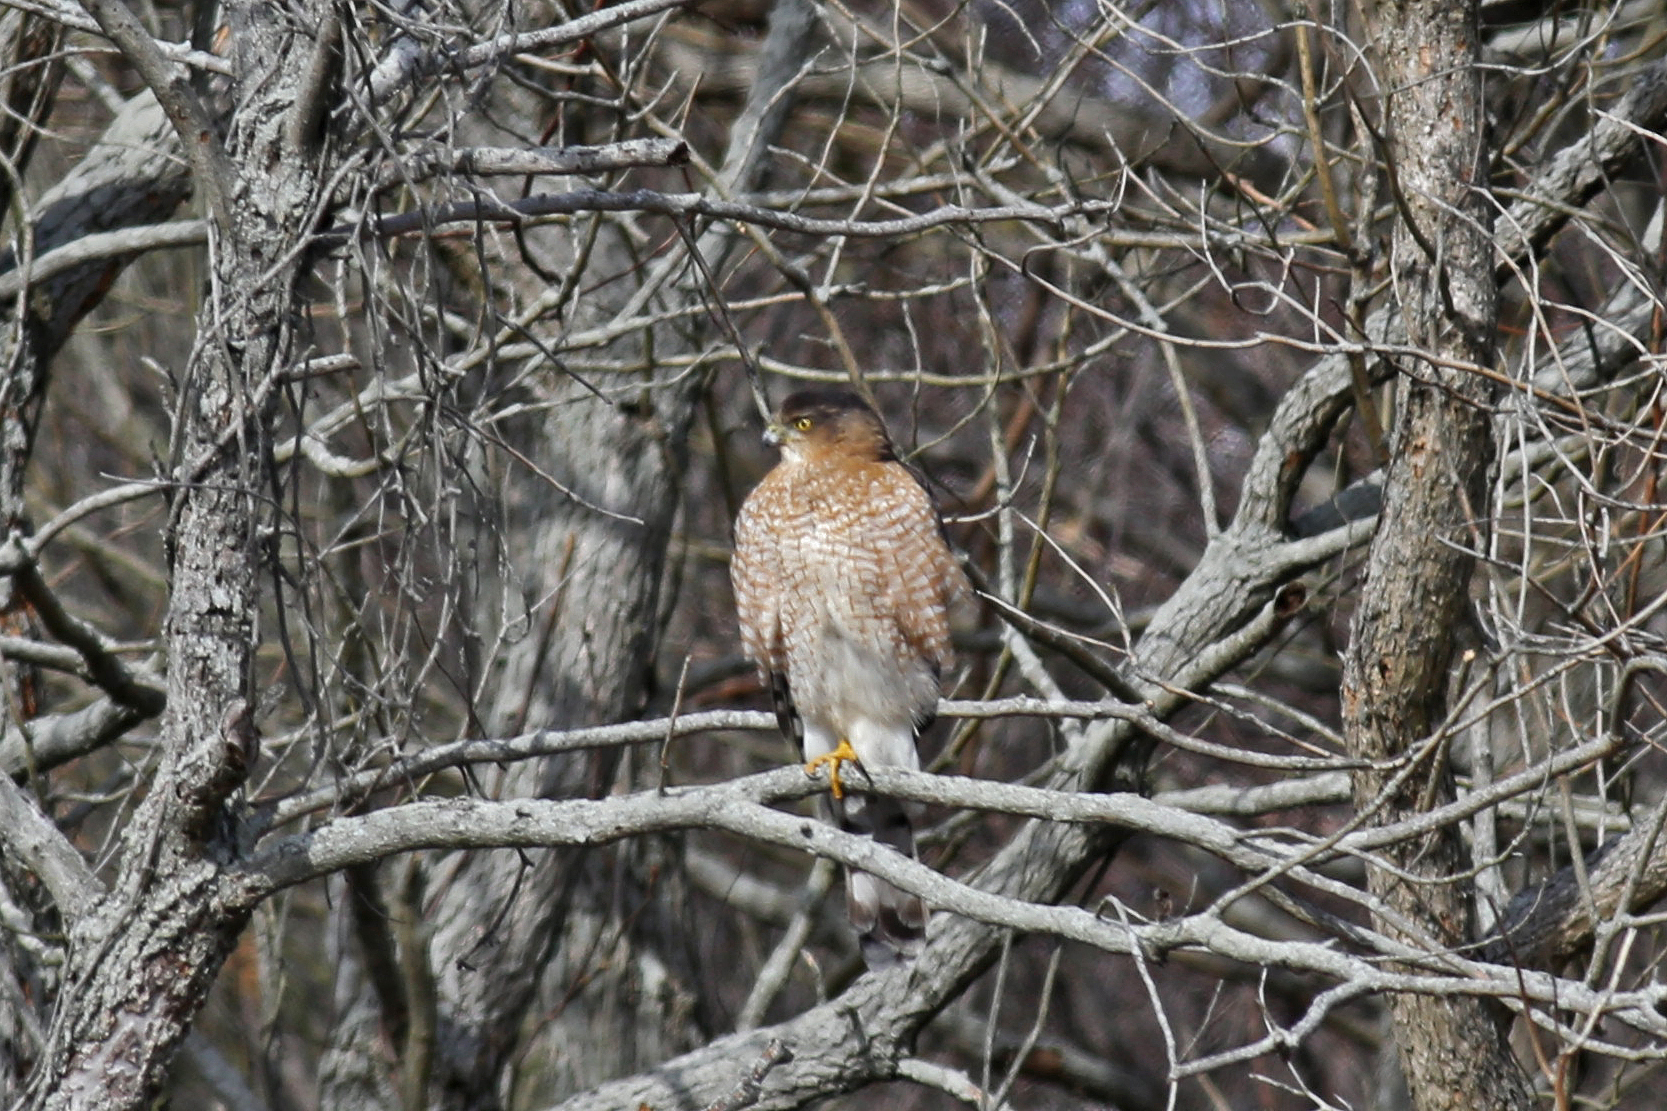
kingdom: Animalia
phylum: Chordata
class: Aves
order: Accipitriformes
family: Accipitridae
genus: Accipiter
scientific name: Accipiter cooperii
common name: Cooper's hawk
